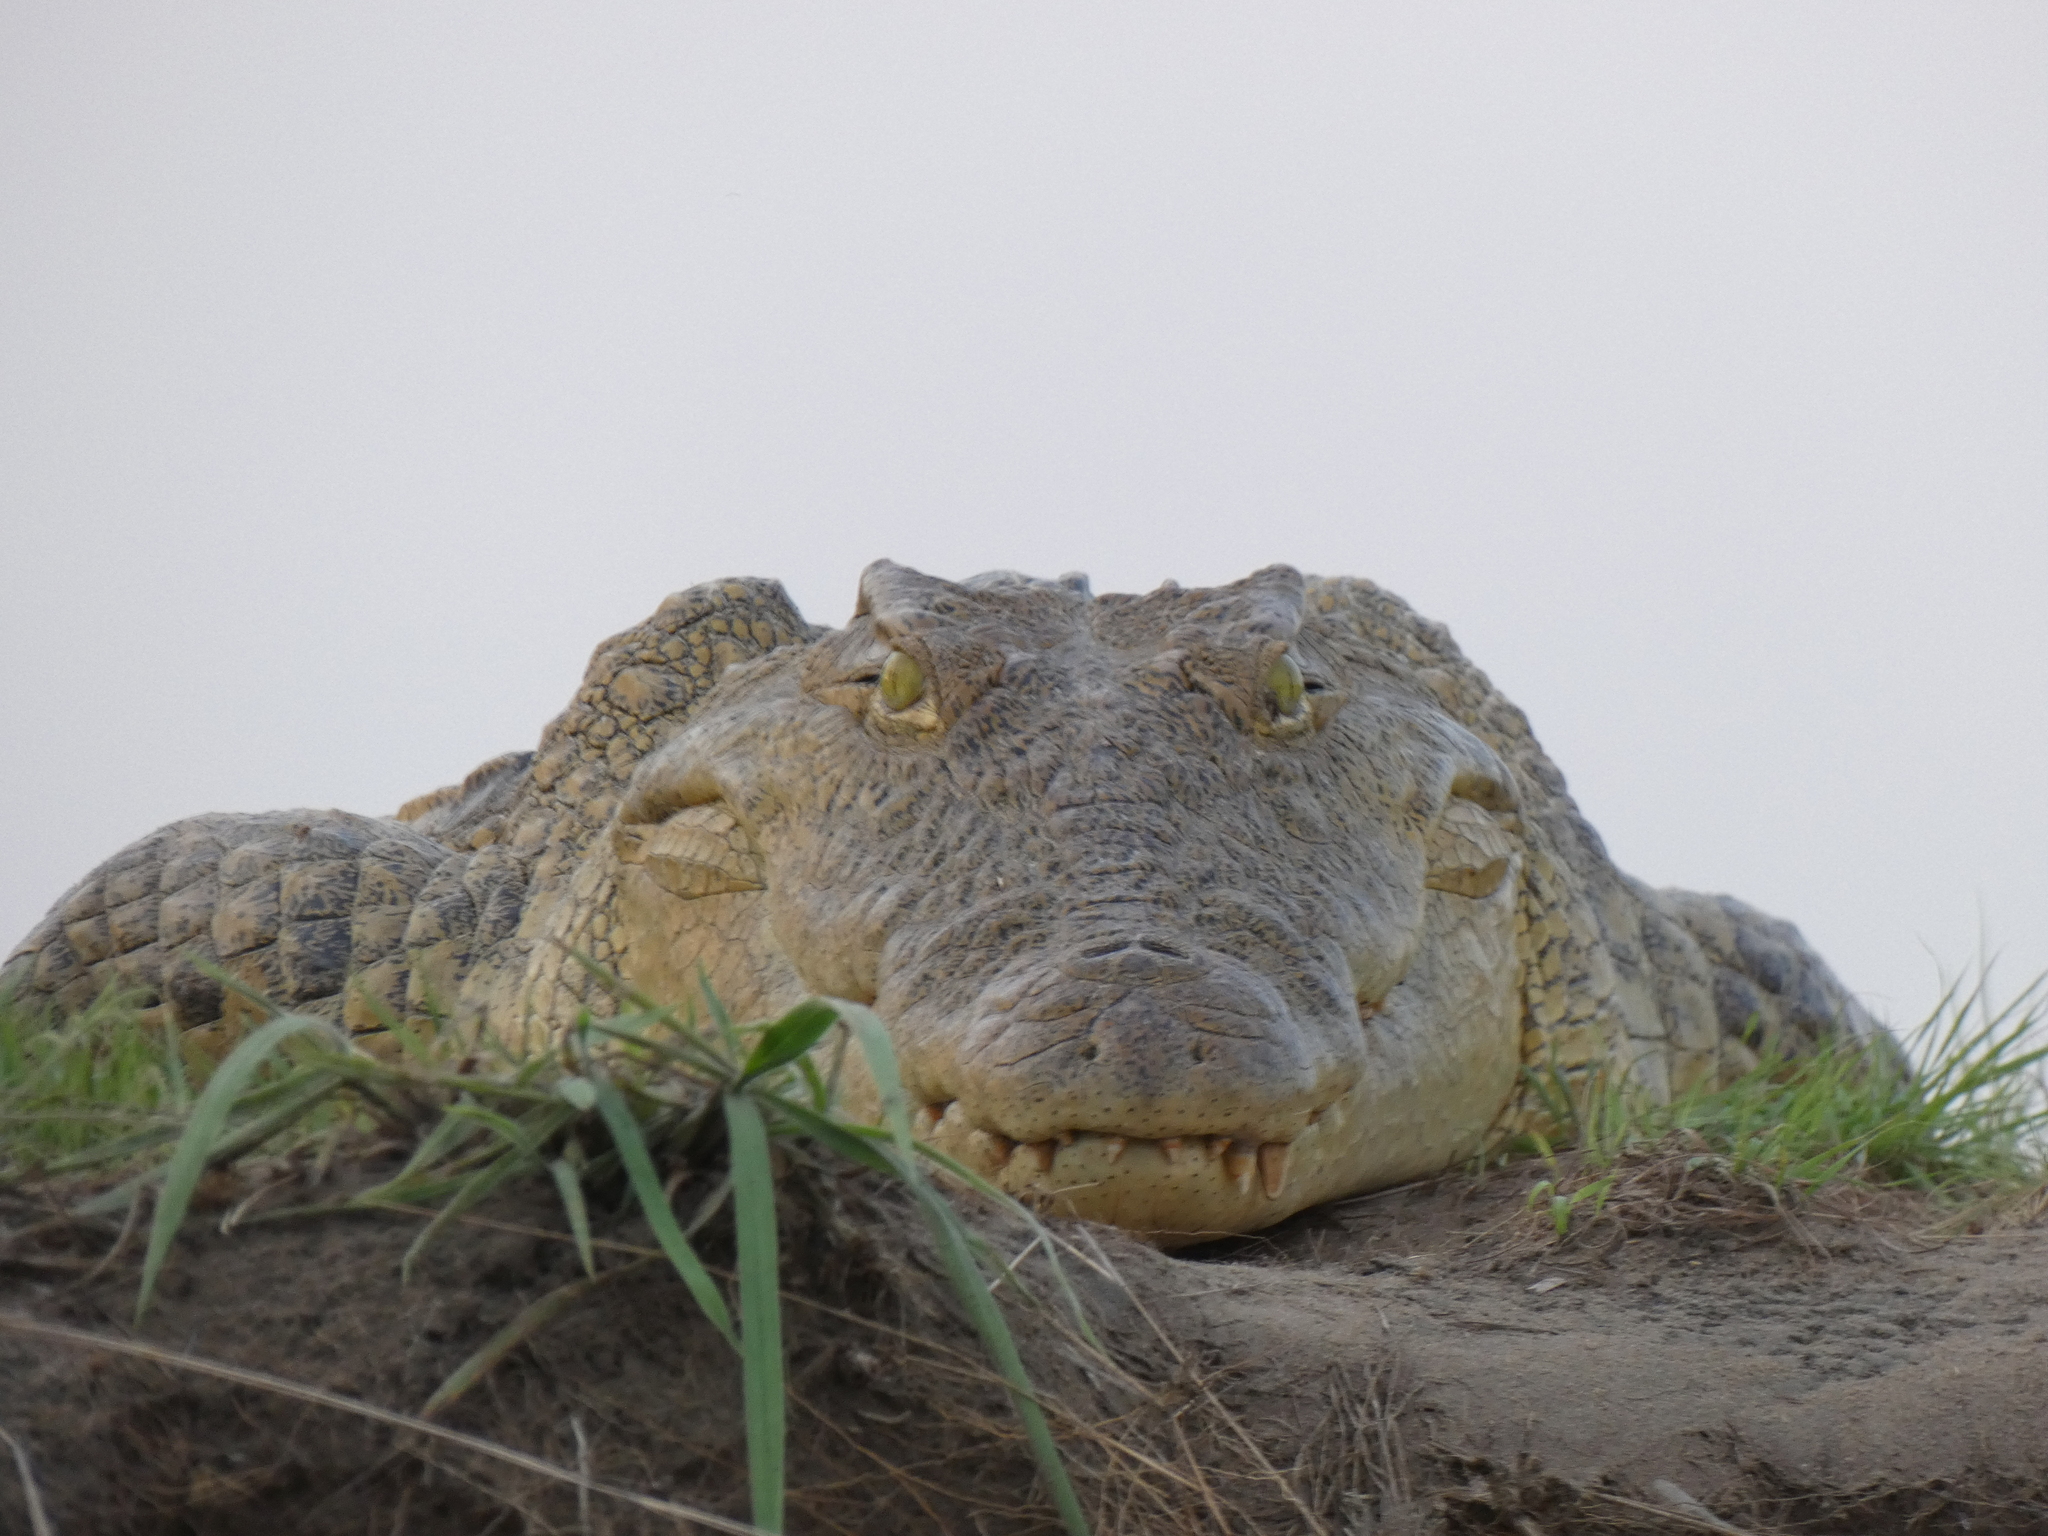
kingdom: Animalia
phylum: Chordata
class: Crocodylia
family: Crocodylidae
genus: Crocodylus
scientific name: Crocodylus niloticus
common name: Nile crocodile
